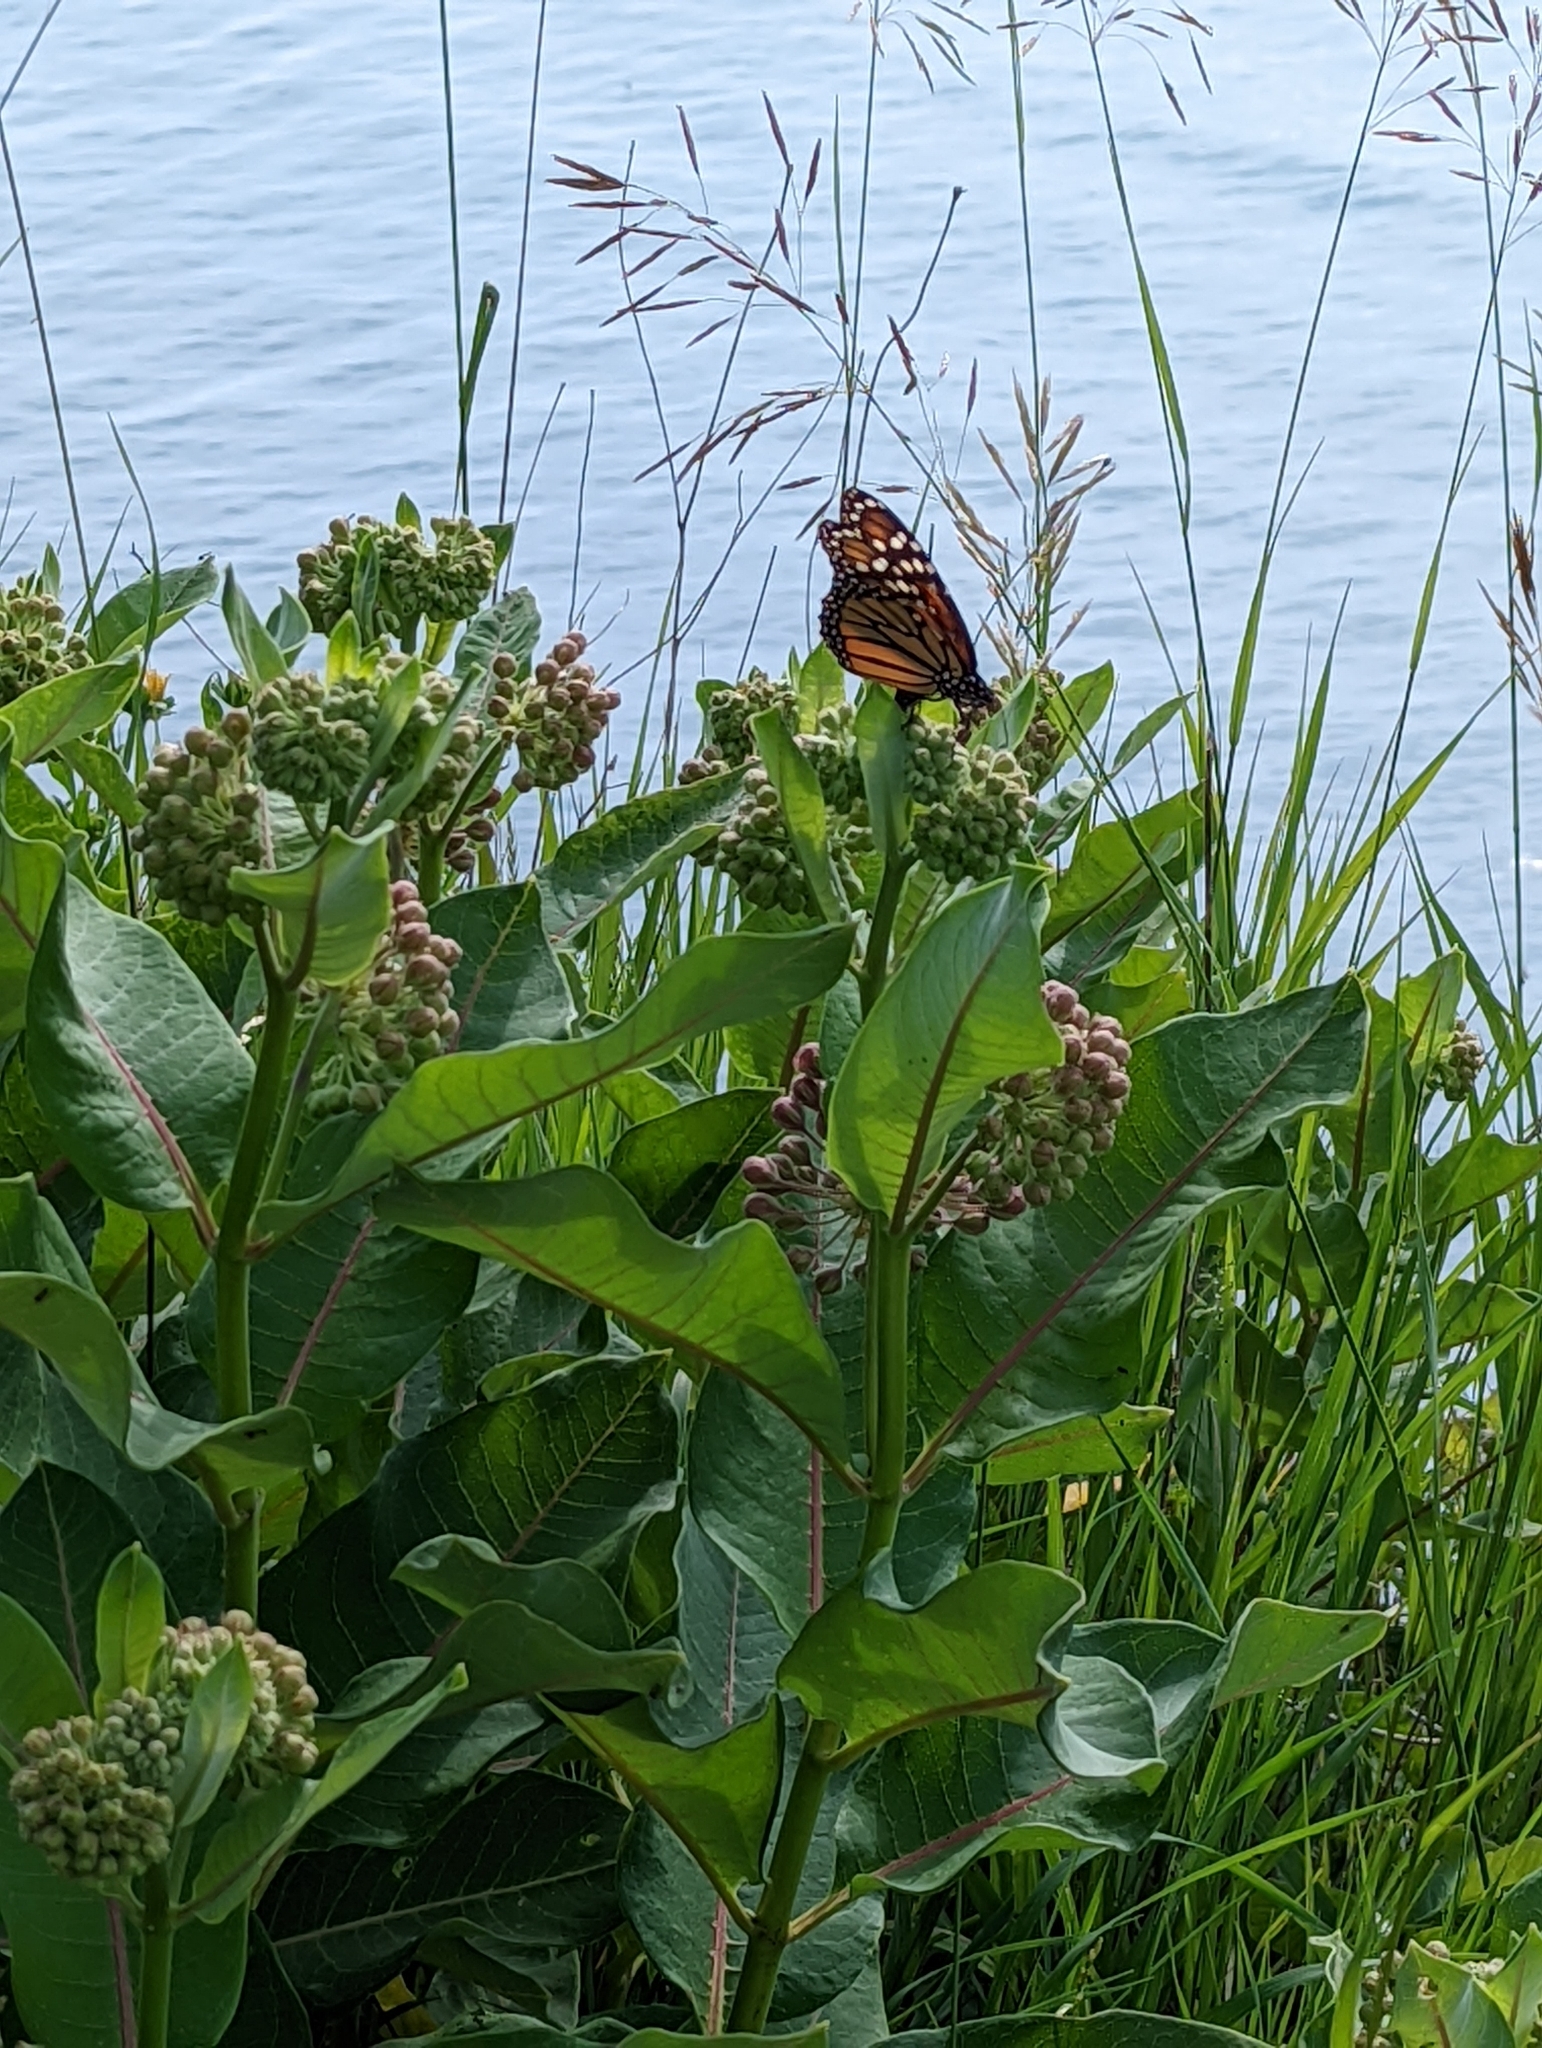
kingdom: Animalia
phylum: Arthropoda
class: Insecta
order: Lepidoptera
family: Nymphalidae
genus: Danaus
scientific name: Danaus plexippus
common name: Monarch
